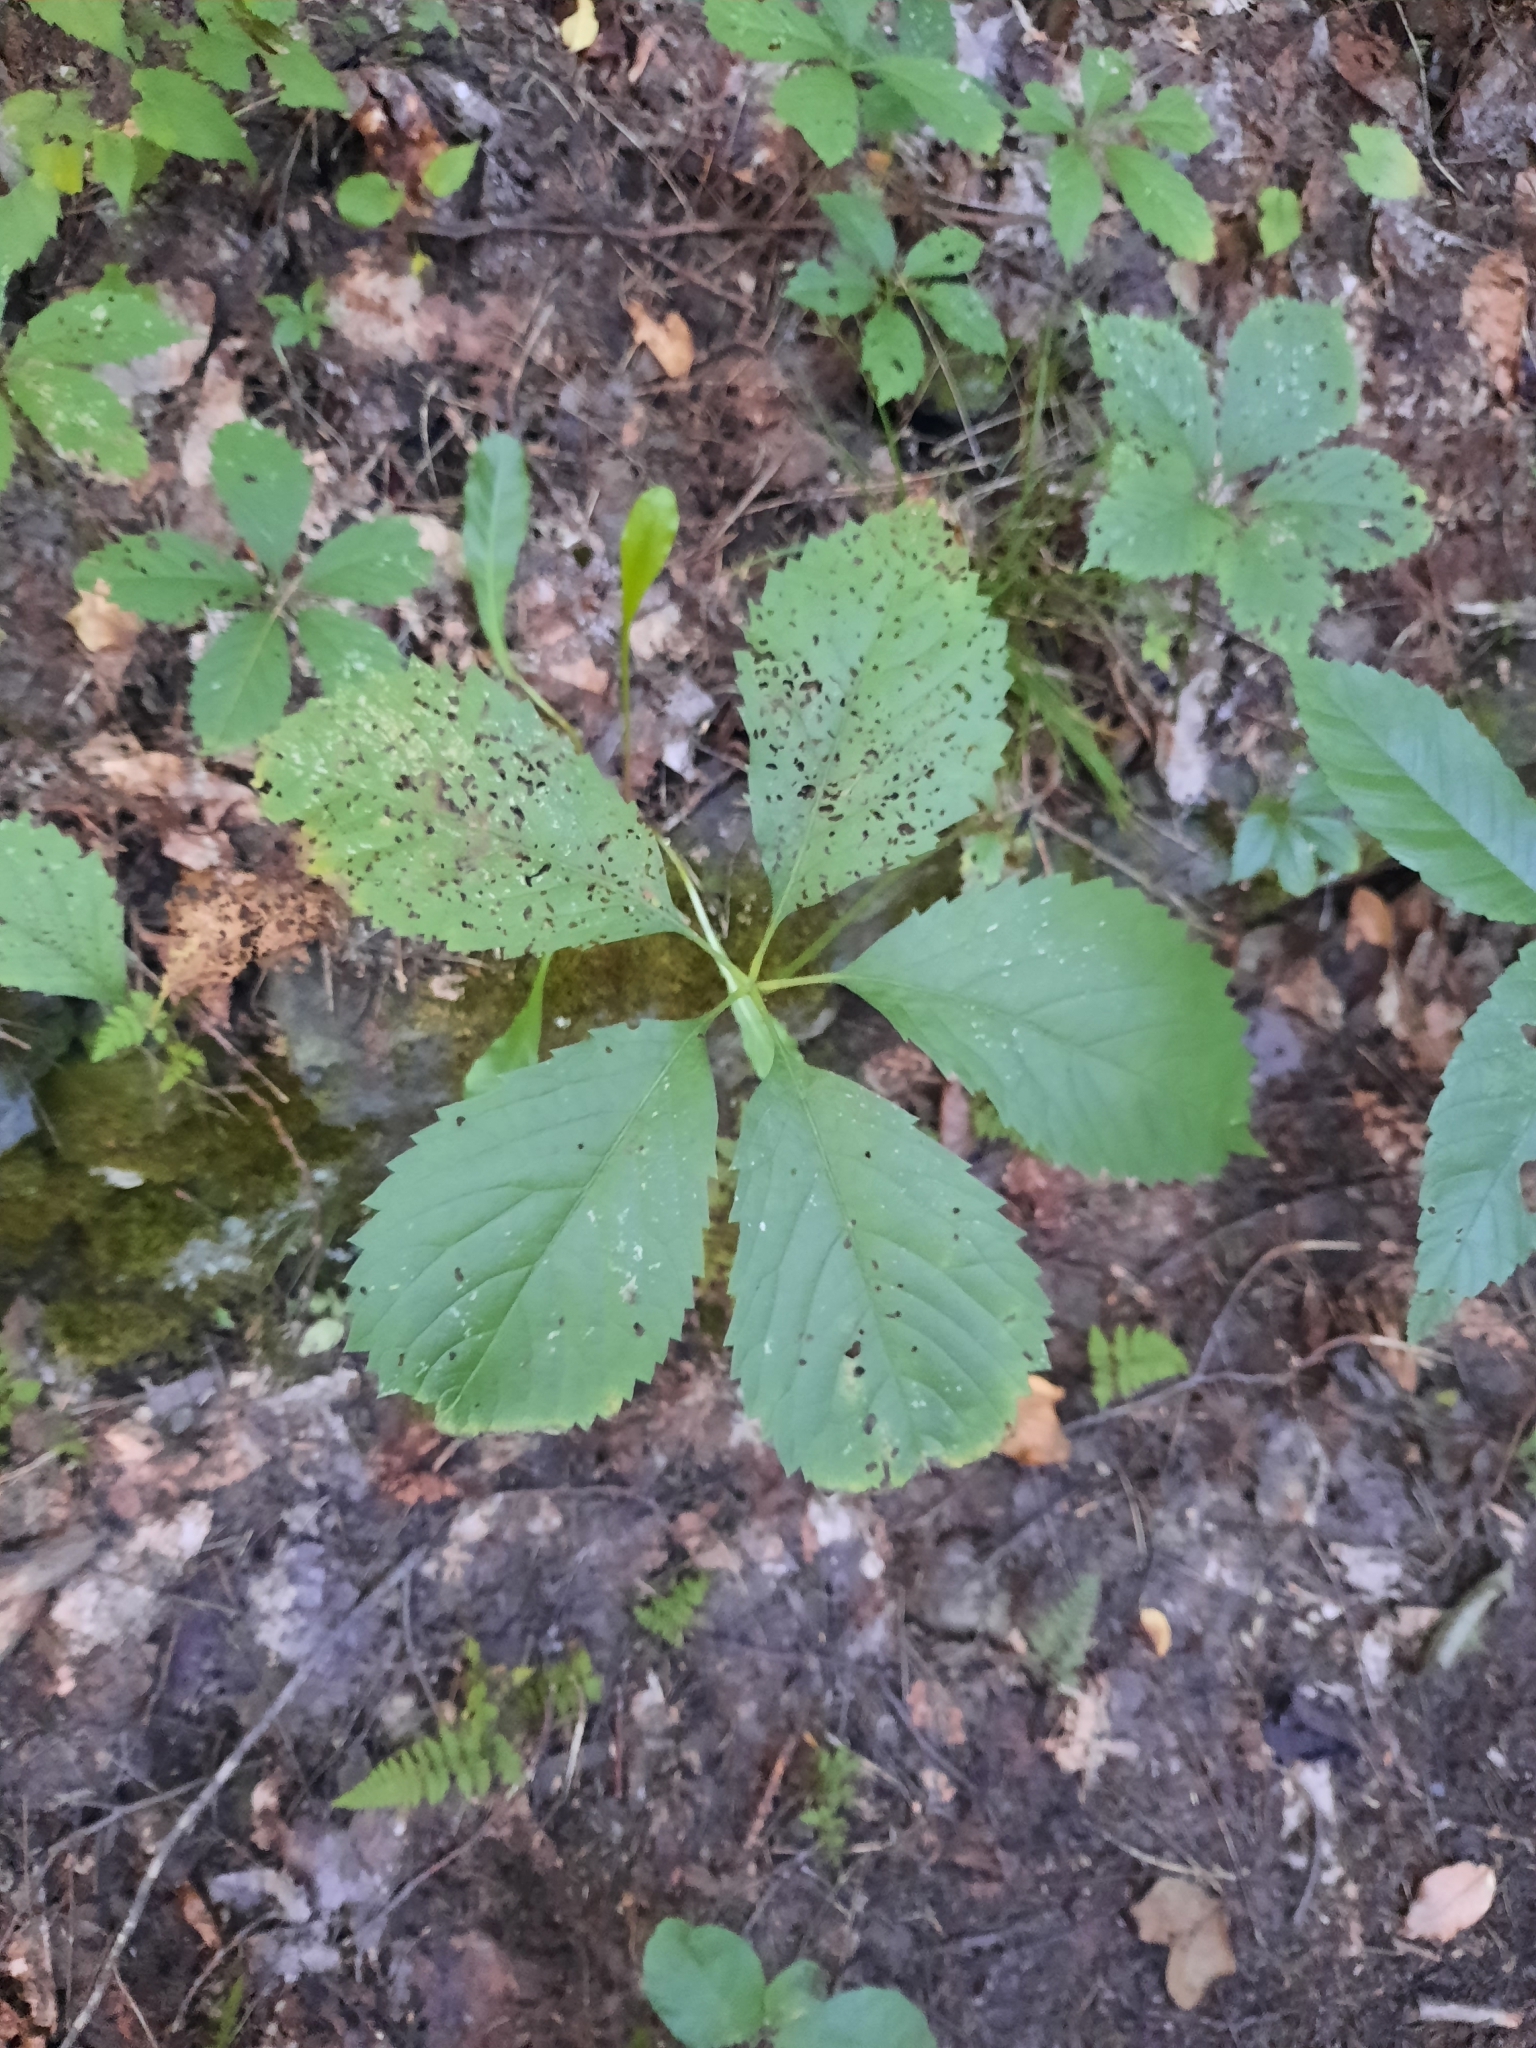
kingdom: Plantae
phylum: Tracheophyta
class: Magnoliopsida
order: Vitales
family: Vitaceae
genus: Parthenocissus
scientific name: Parthenocissus inserta
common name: False virginia-creeper
